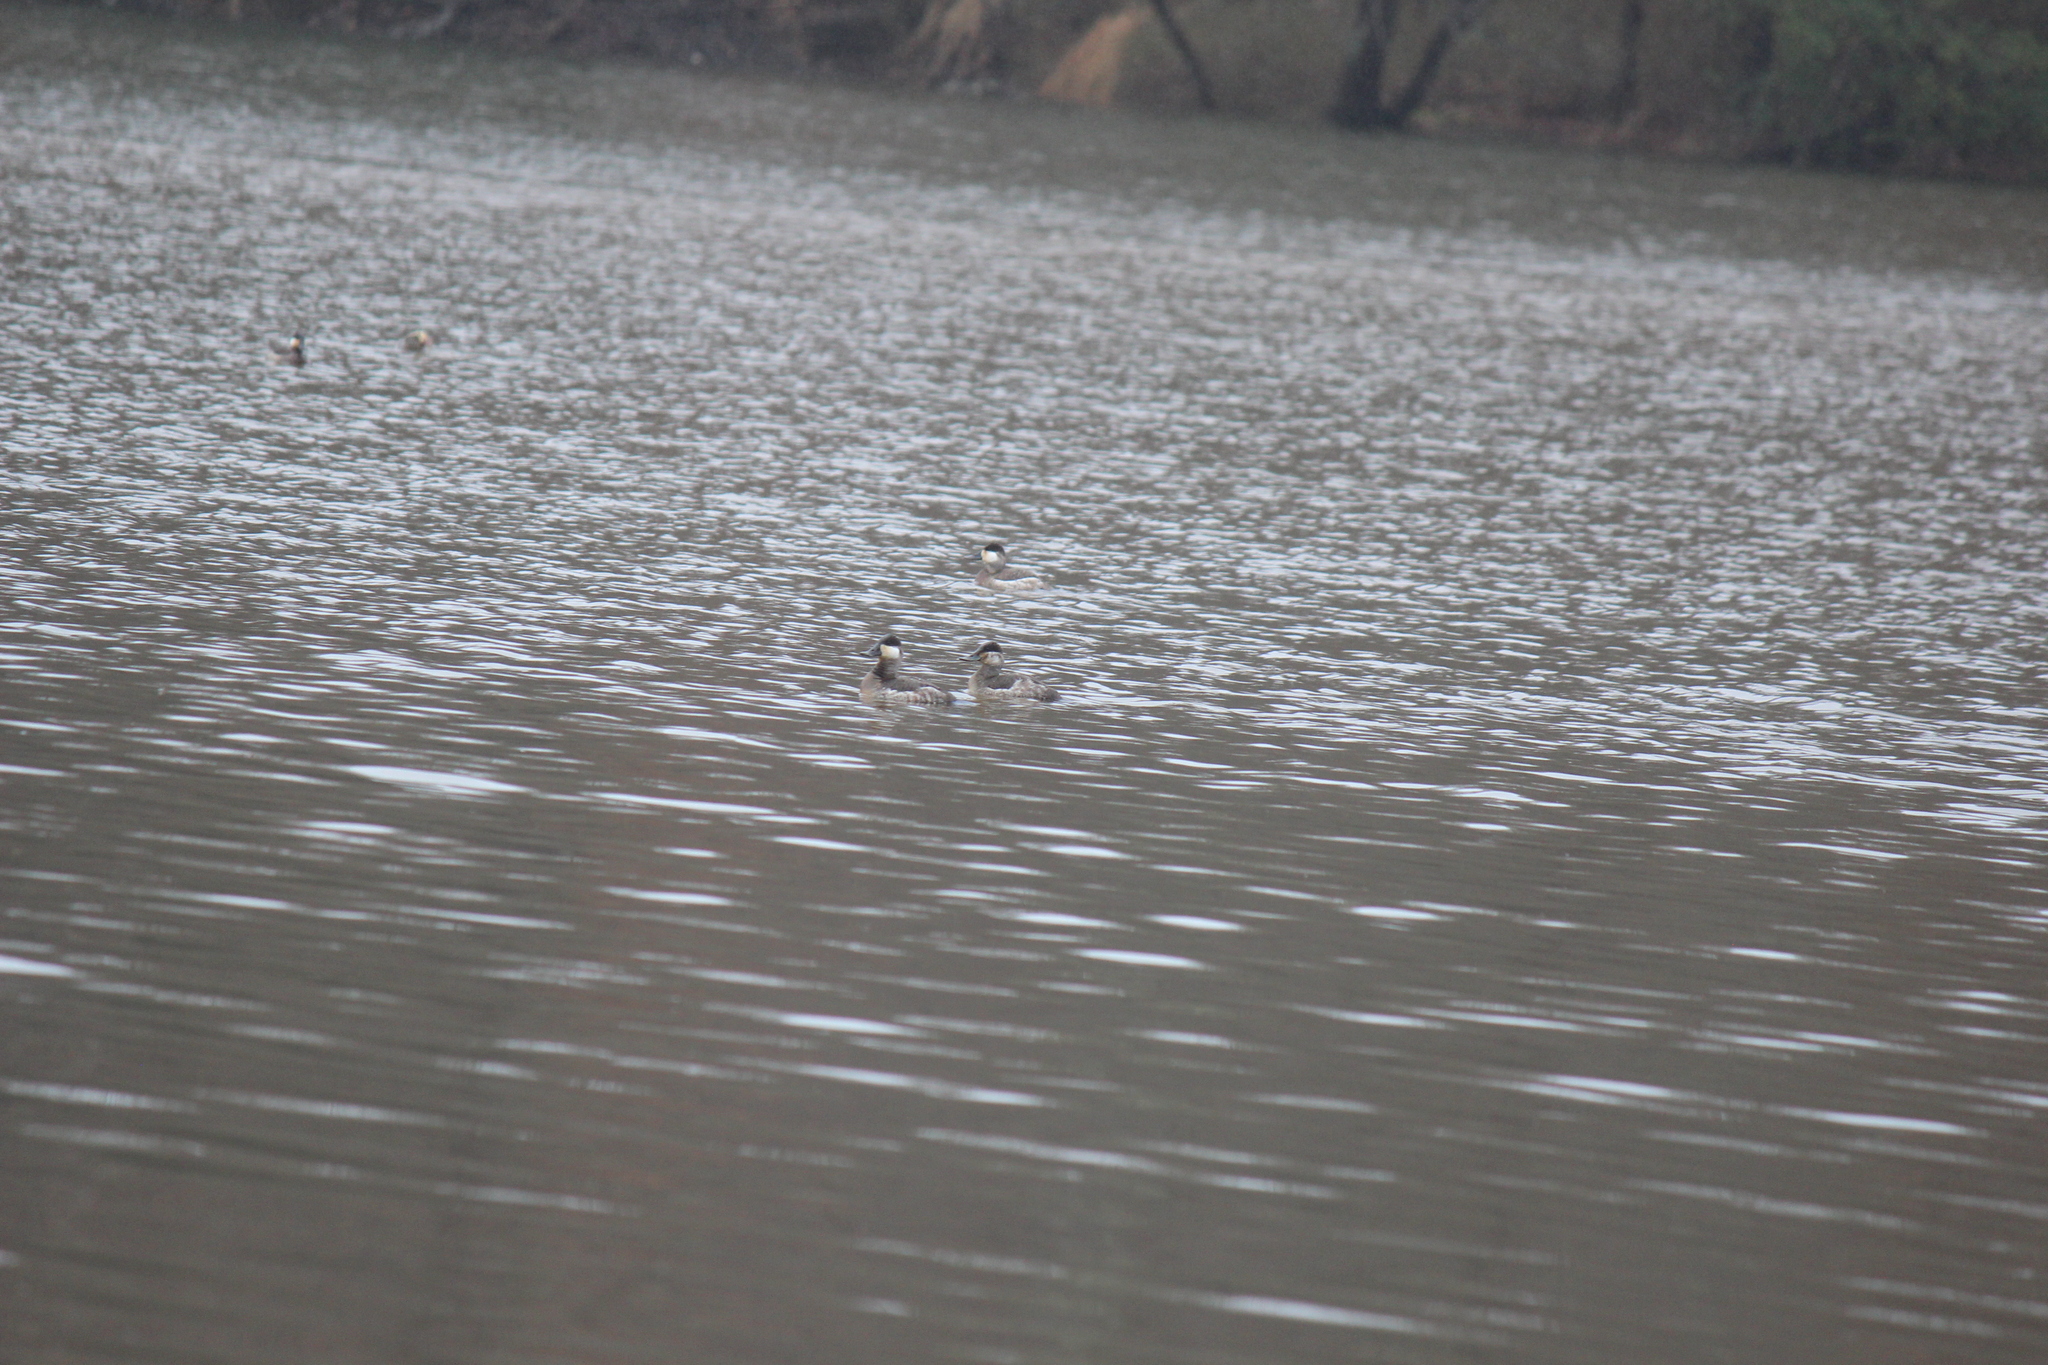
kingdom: Animalia
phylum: Chordata
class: Aves
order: Anseriformes
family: Anatidae
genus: Oxyura
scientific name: Oxyura jamaicensis
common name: Ruddy duck
